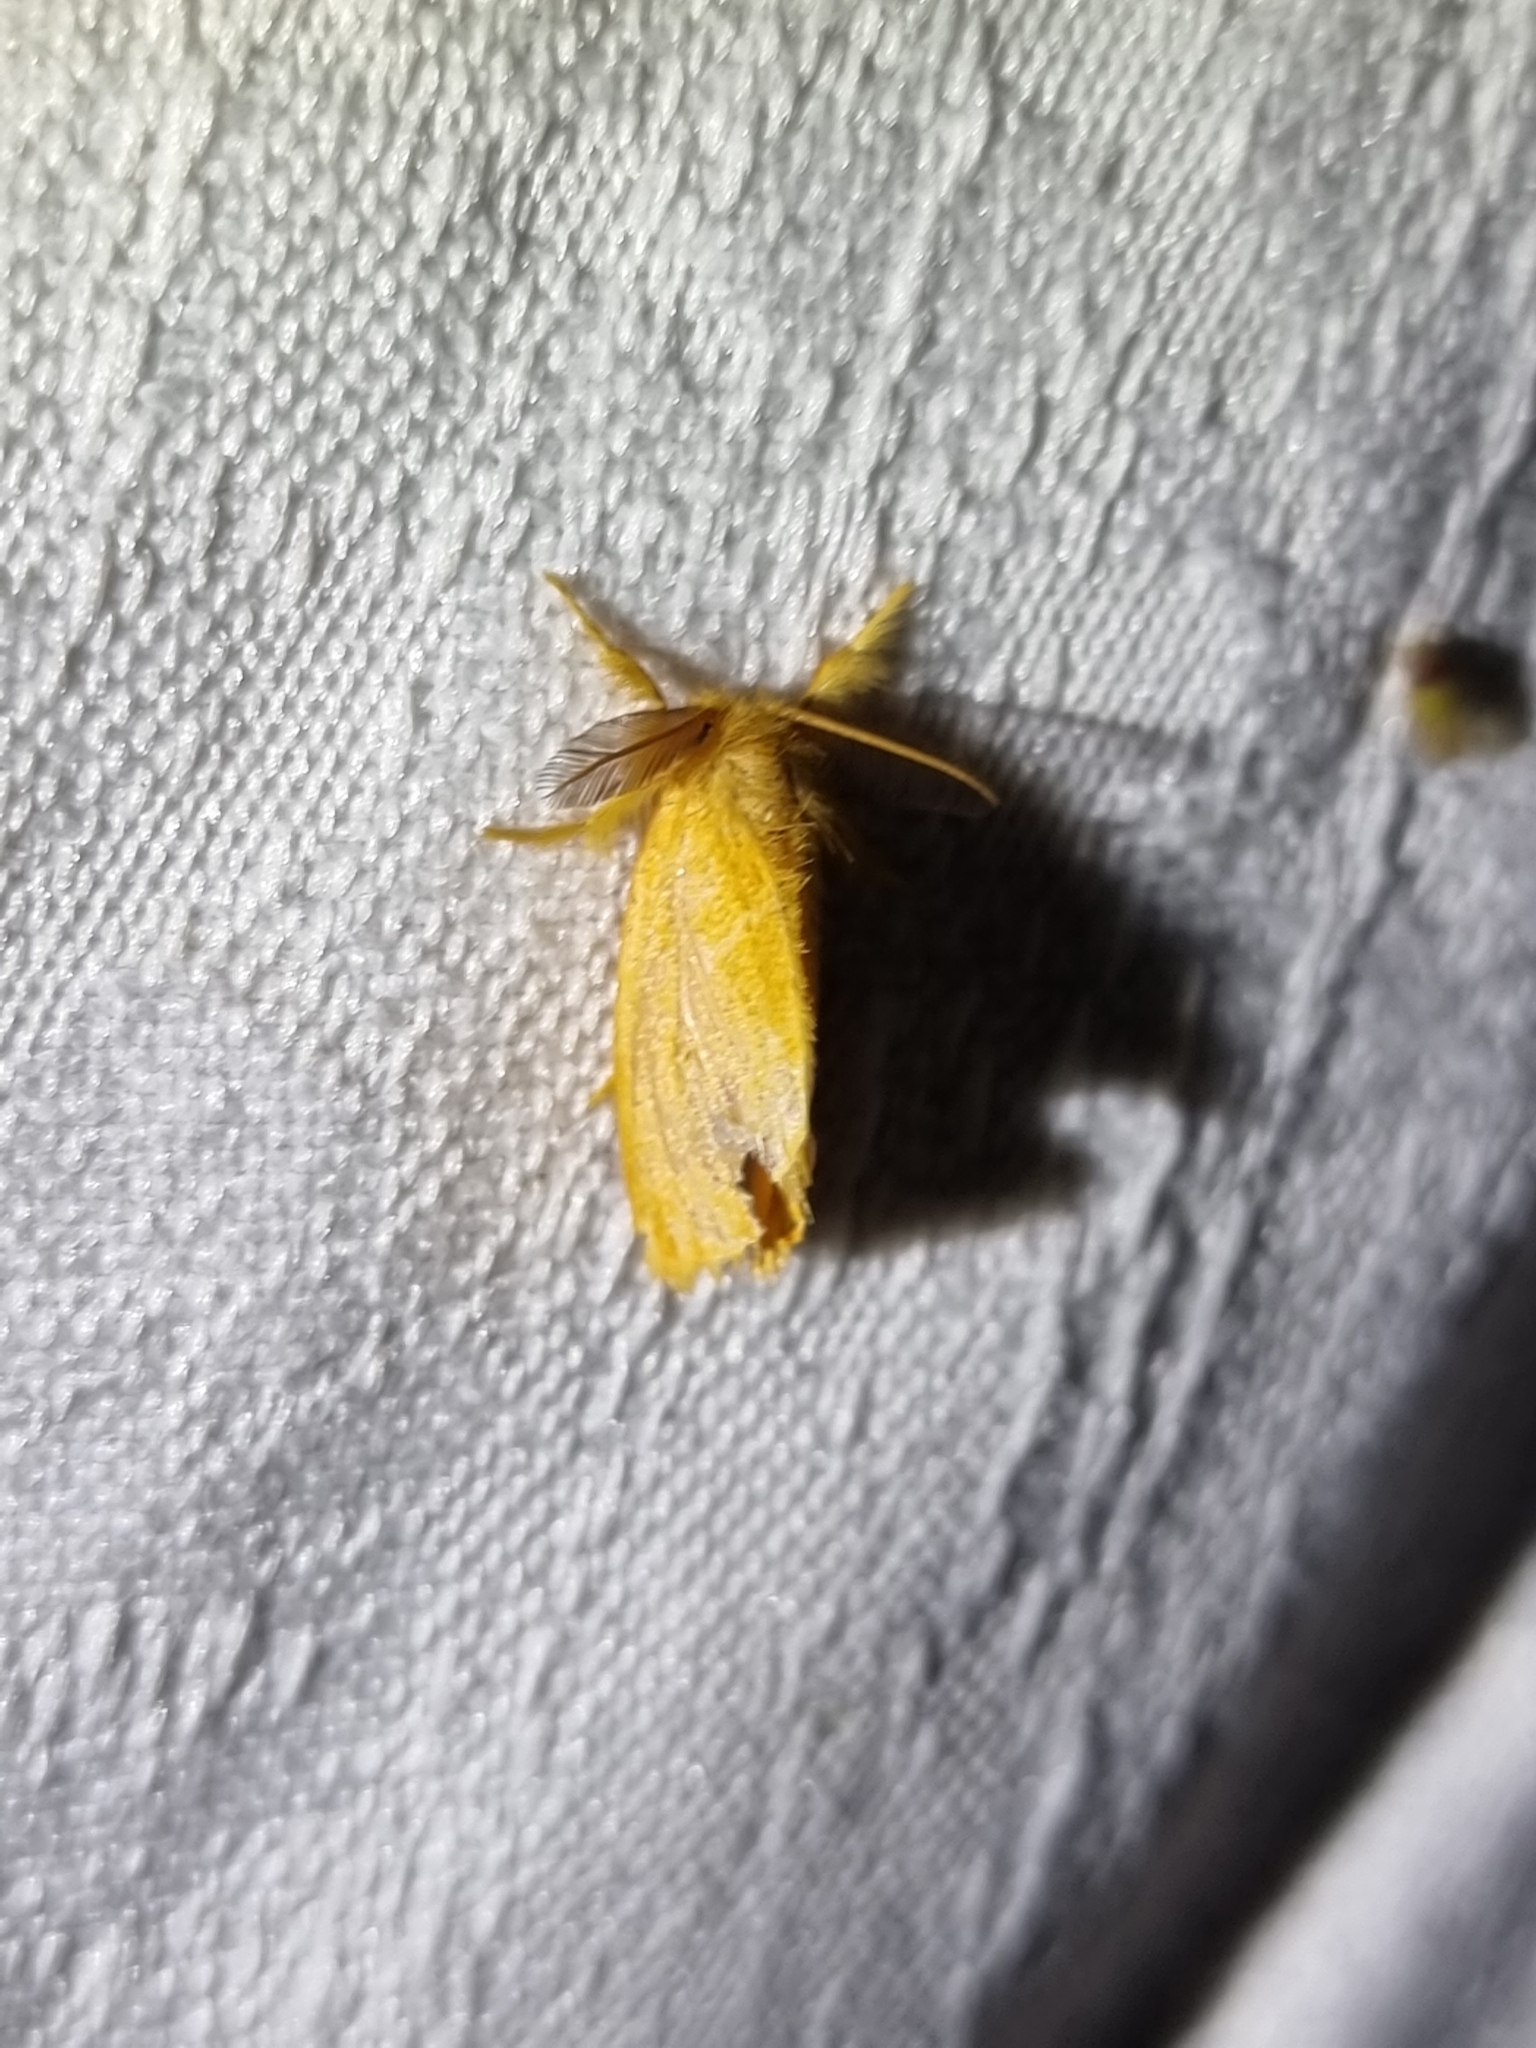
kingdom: Animalia
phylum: Arthropoda
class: Insecta
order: Lepidoptera
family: Erebidae
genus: Euproctis
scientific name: Euproctis lutea
